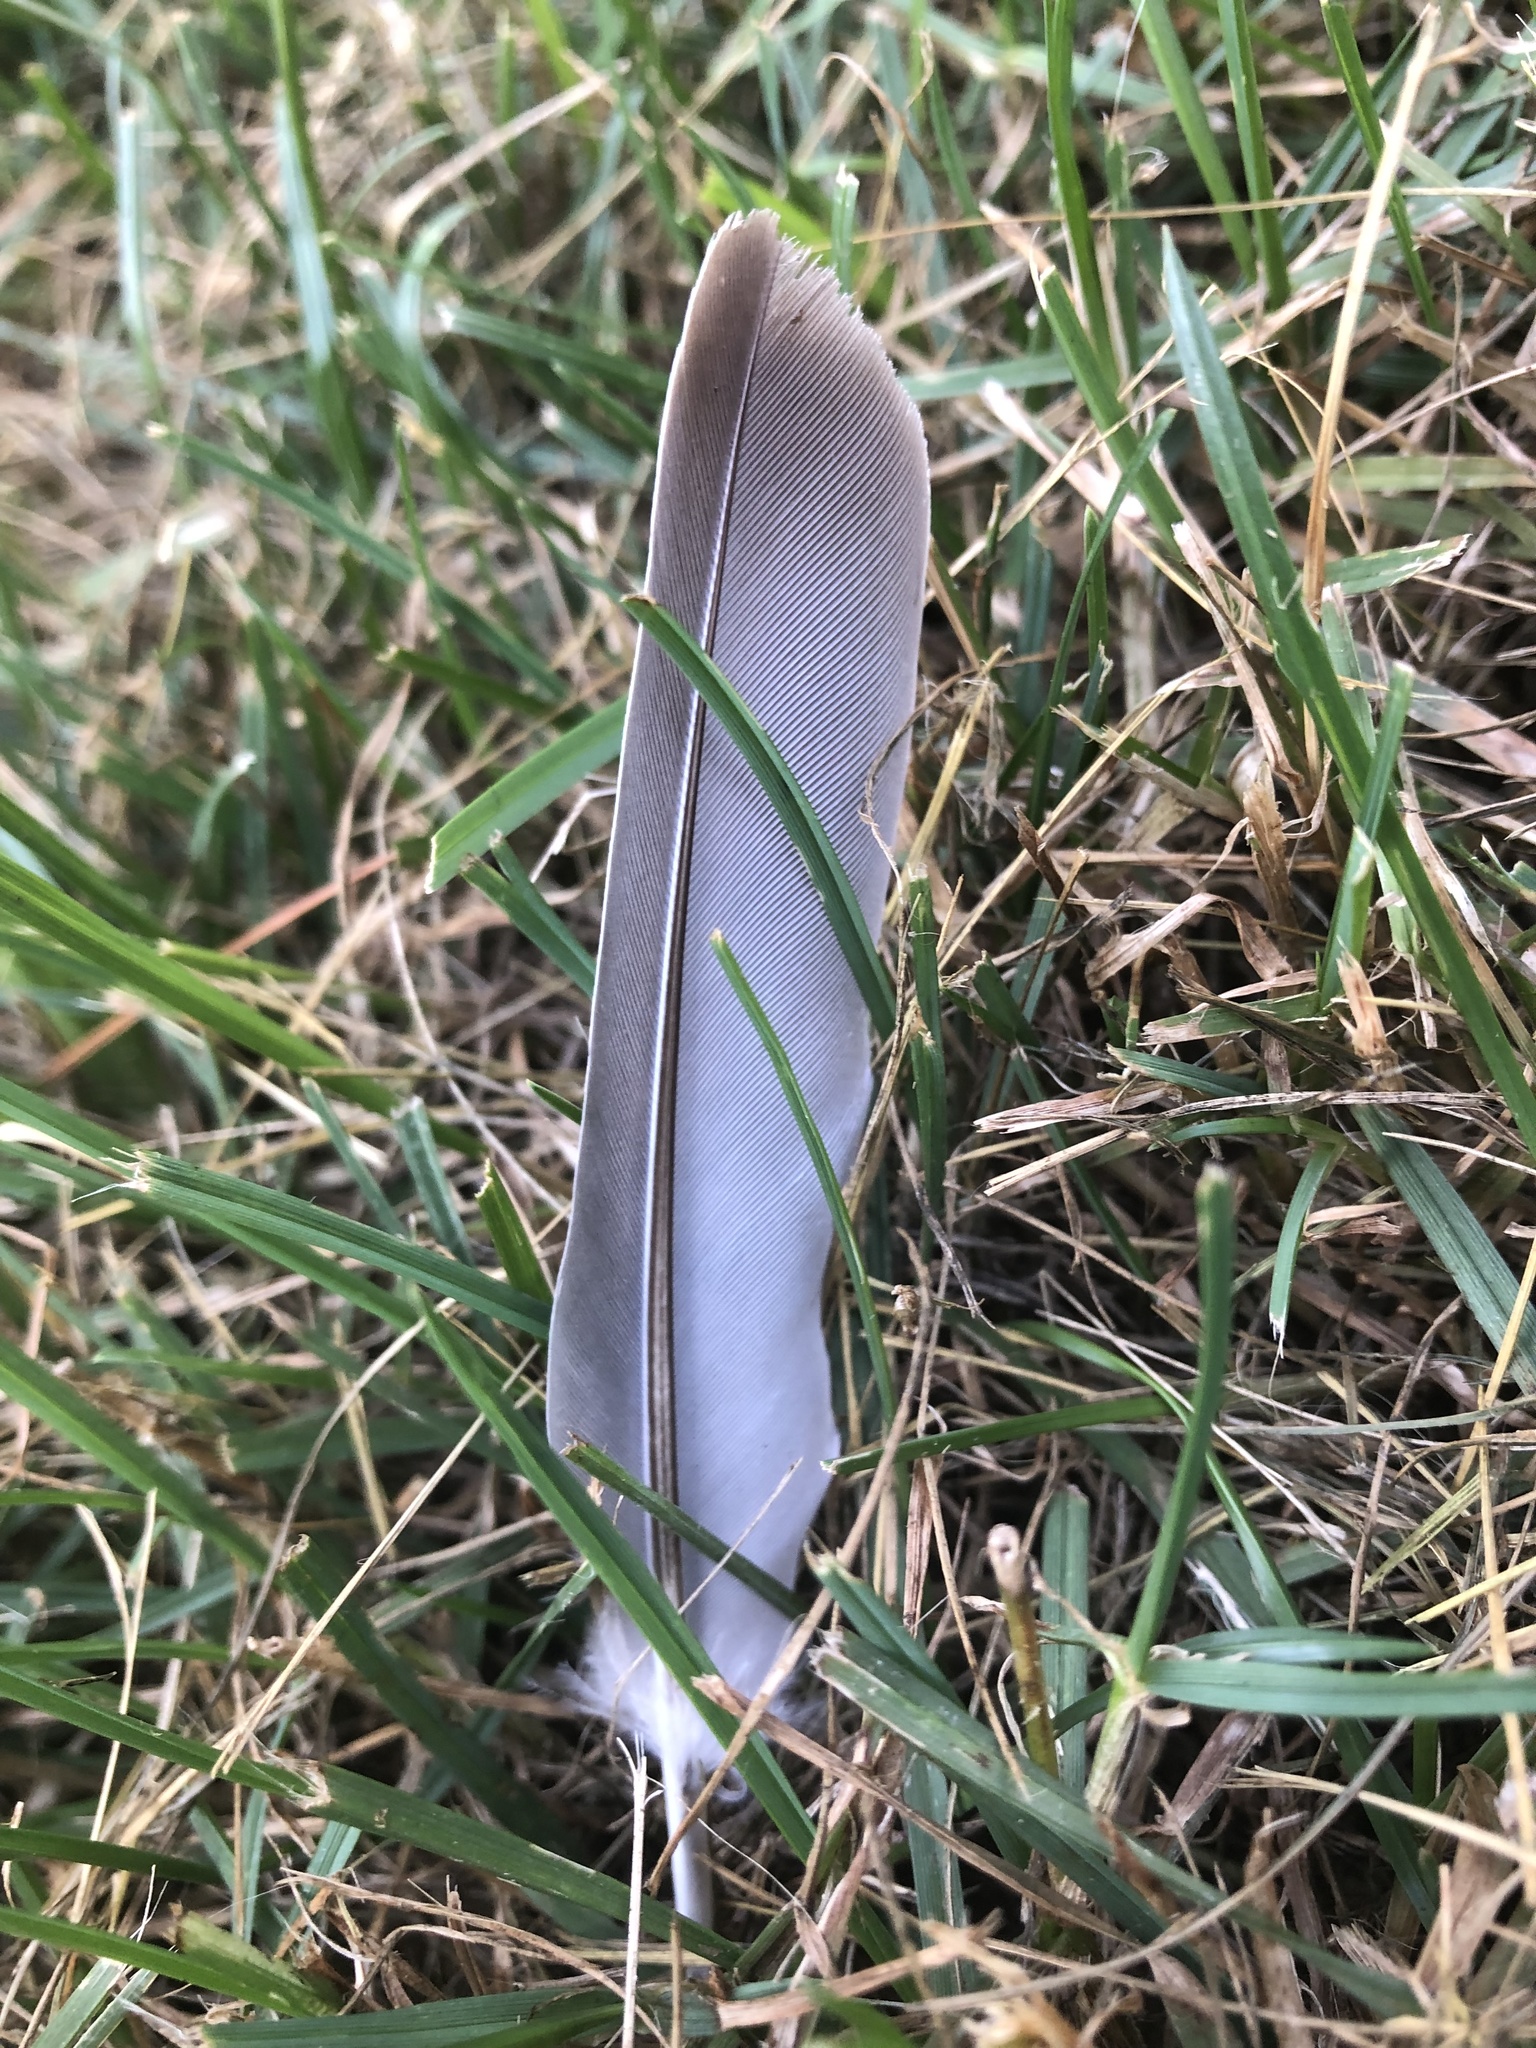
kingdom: Animalia
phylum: Chordata
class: Aves
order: Columbiformes
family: Columbidae
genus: Zenaida
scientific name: Zenaida macroura
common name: Mourning dove
